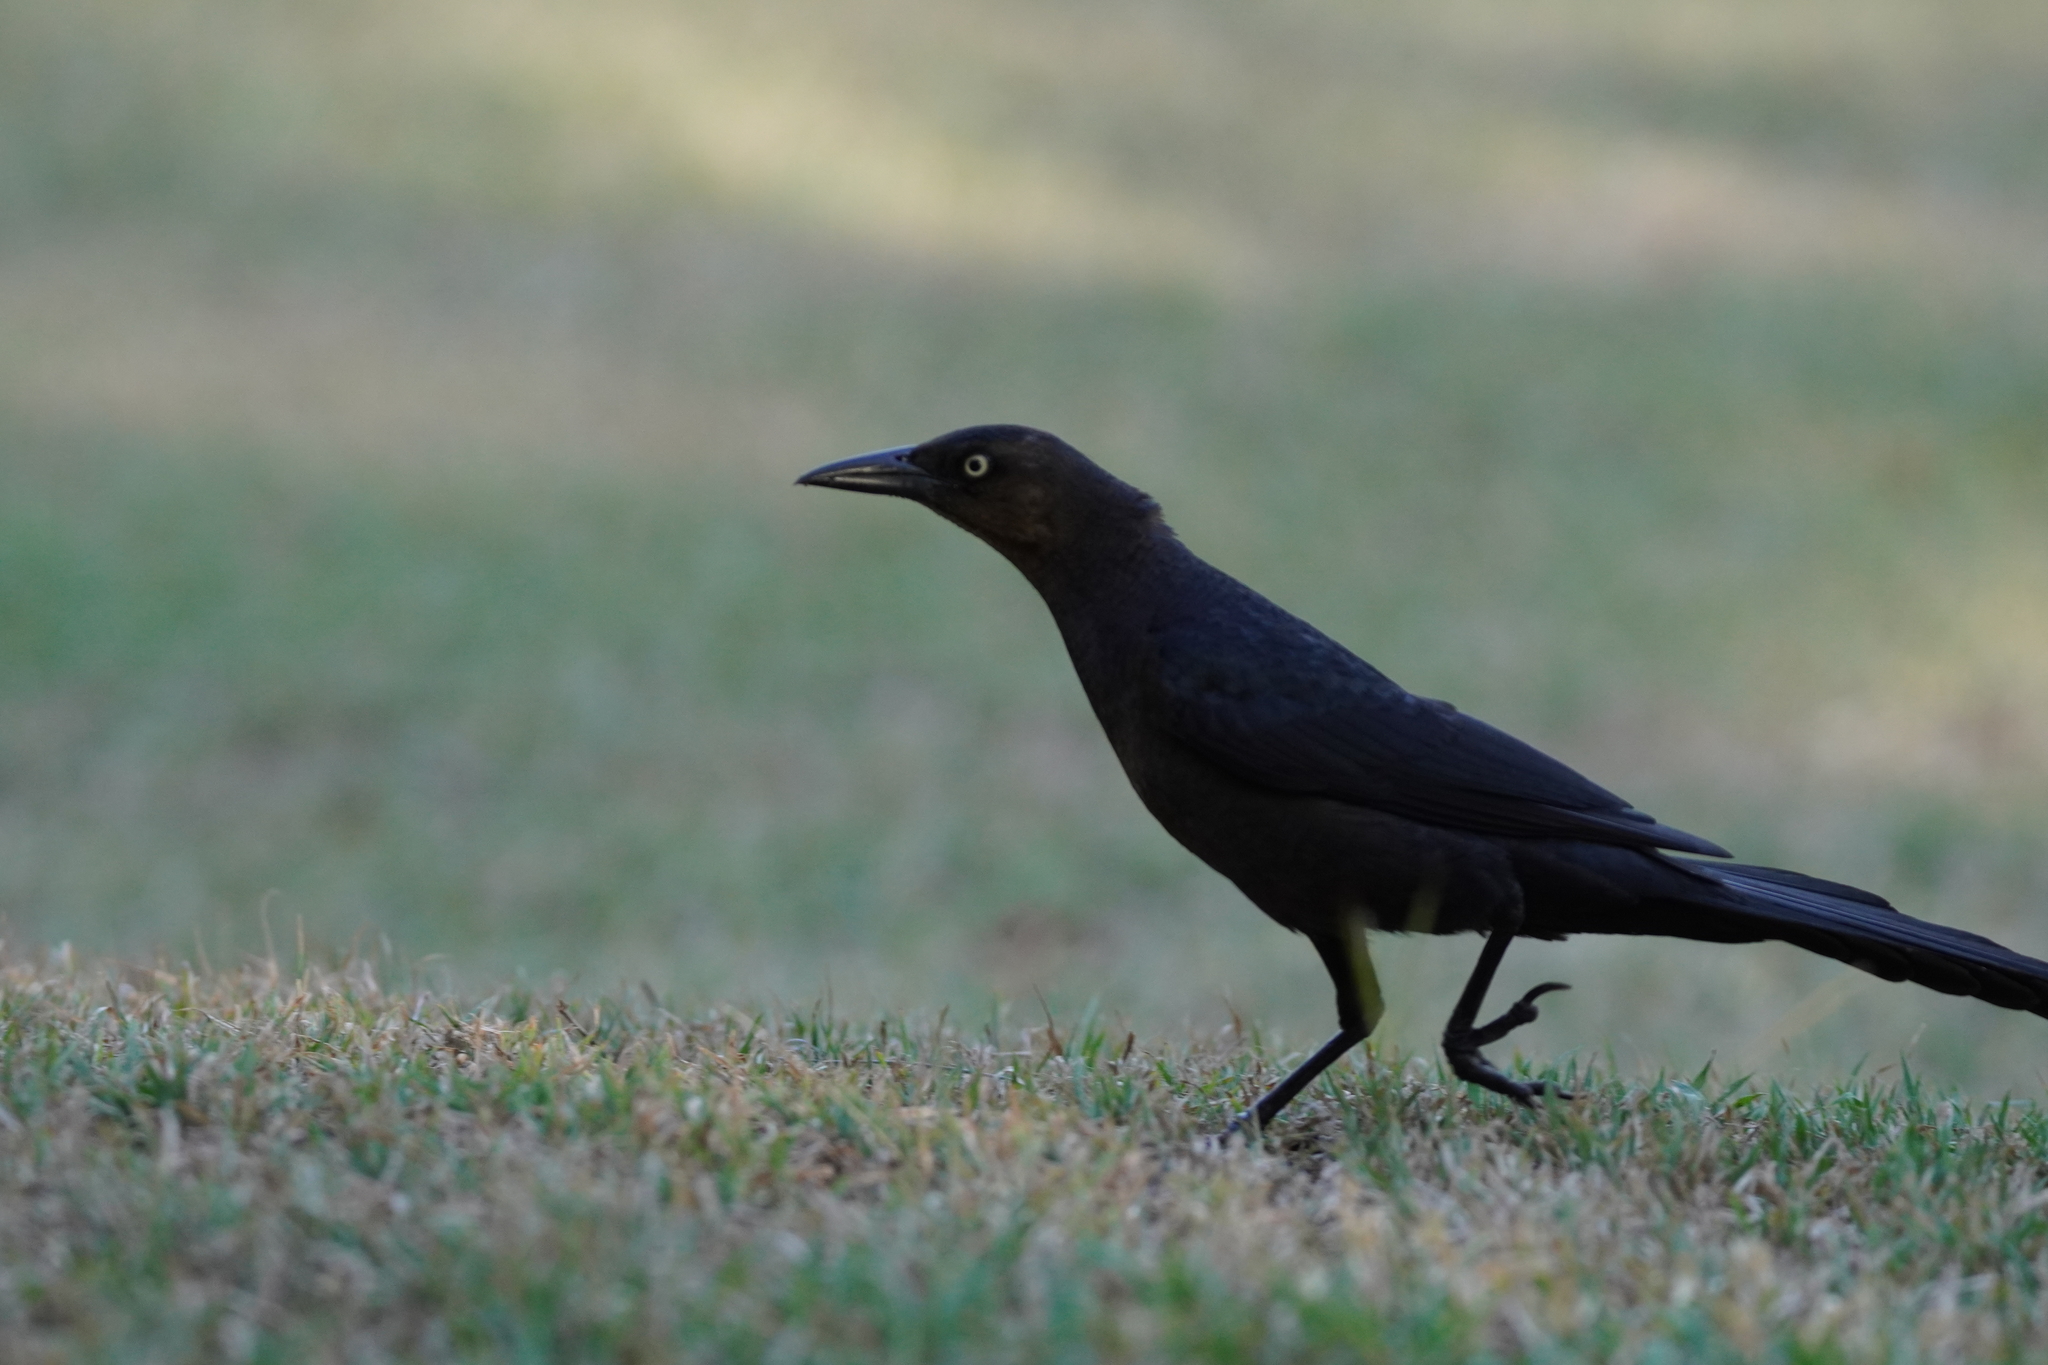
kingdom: Animalia
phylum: Chordata
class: Aves
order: Passeriformes
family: Icteridae
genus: Quiscalus
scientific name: Quiscalus mexicanus
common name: Great-tailed grackle
